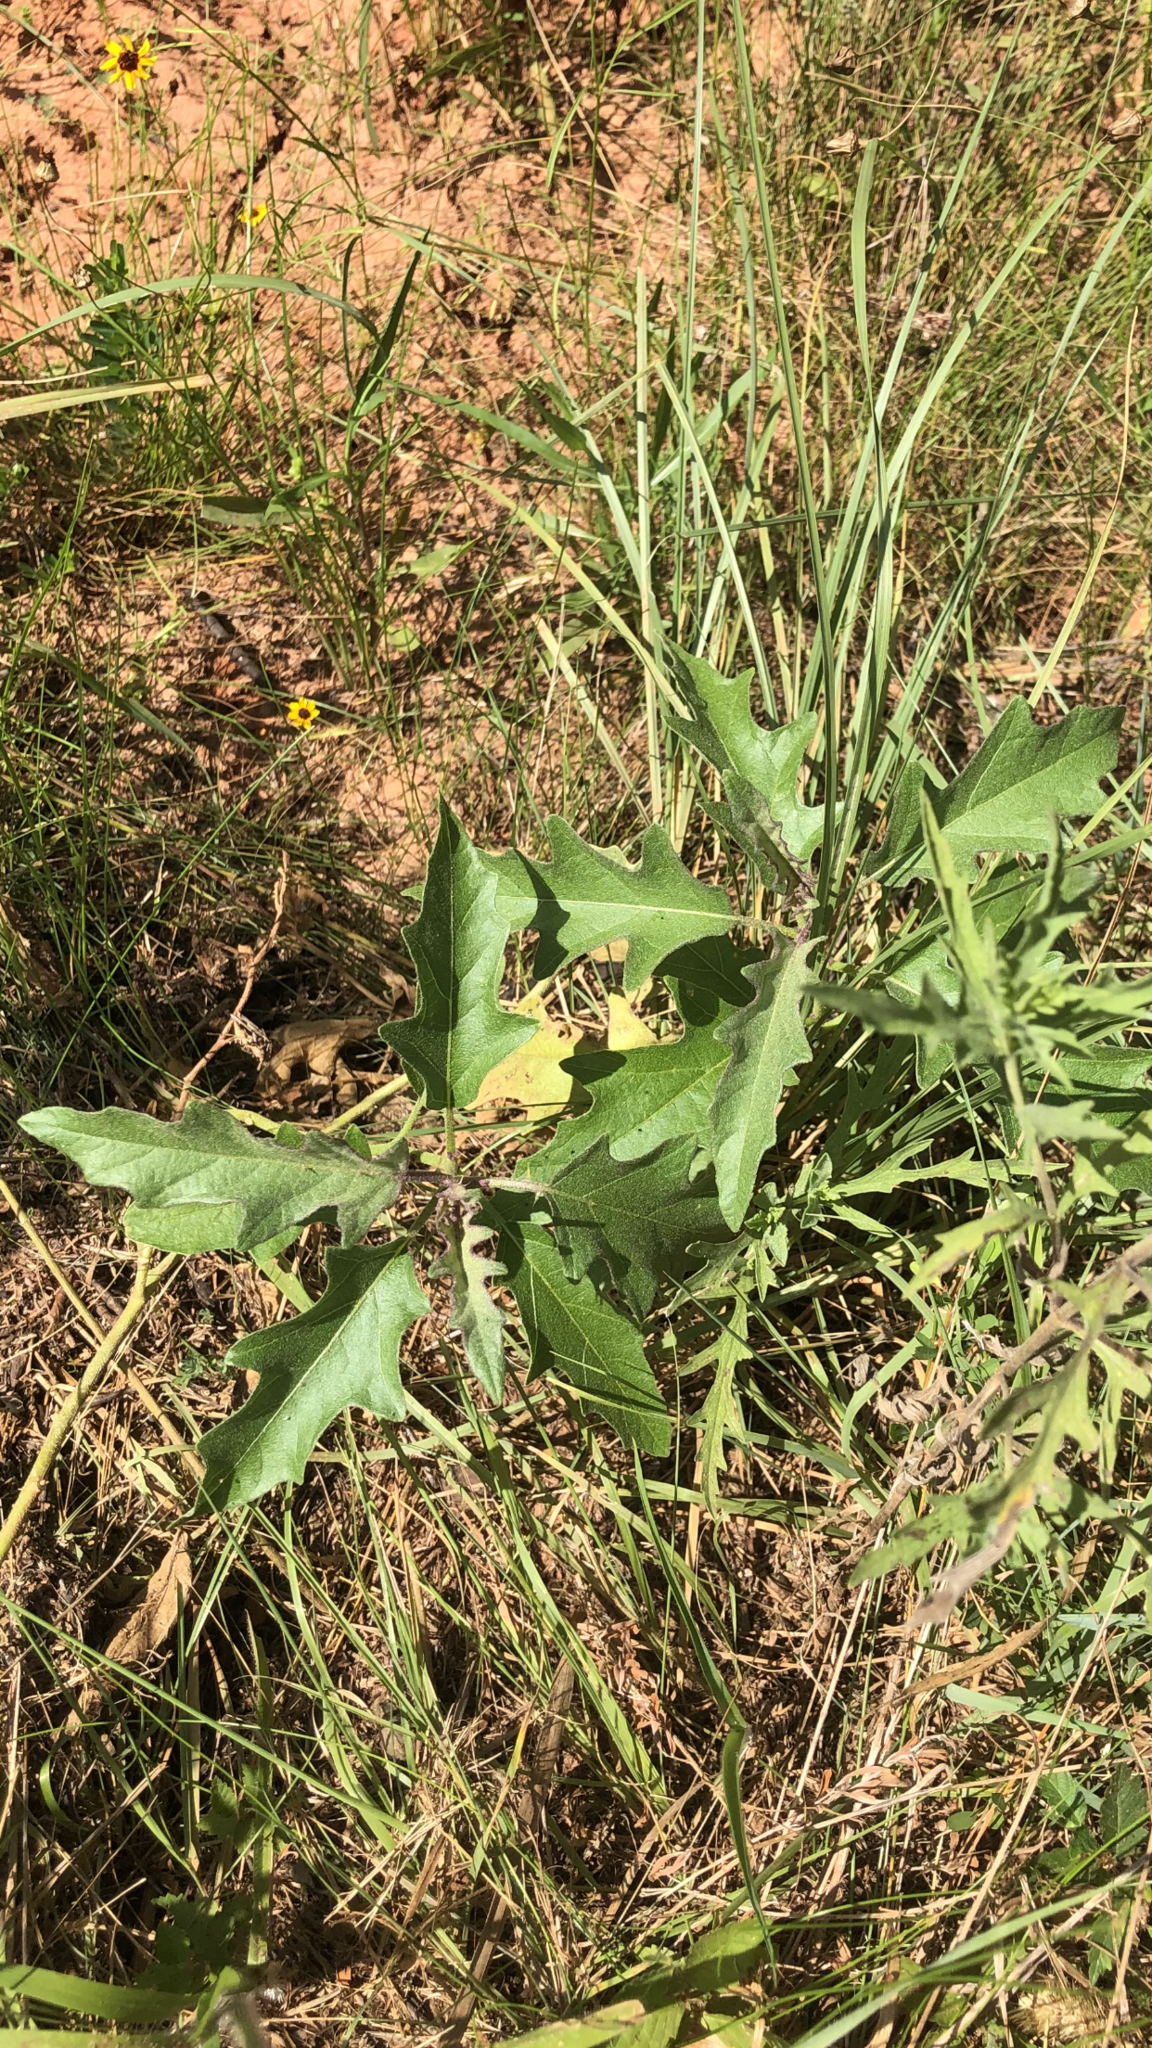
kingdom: Plantae
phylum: Tracheophyta
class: Magnoliopsida
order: Solanales
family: Solanaceae
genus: Solanum
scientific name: Solanum dimidiatum
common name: Carolina horse-nettle
